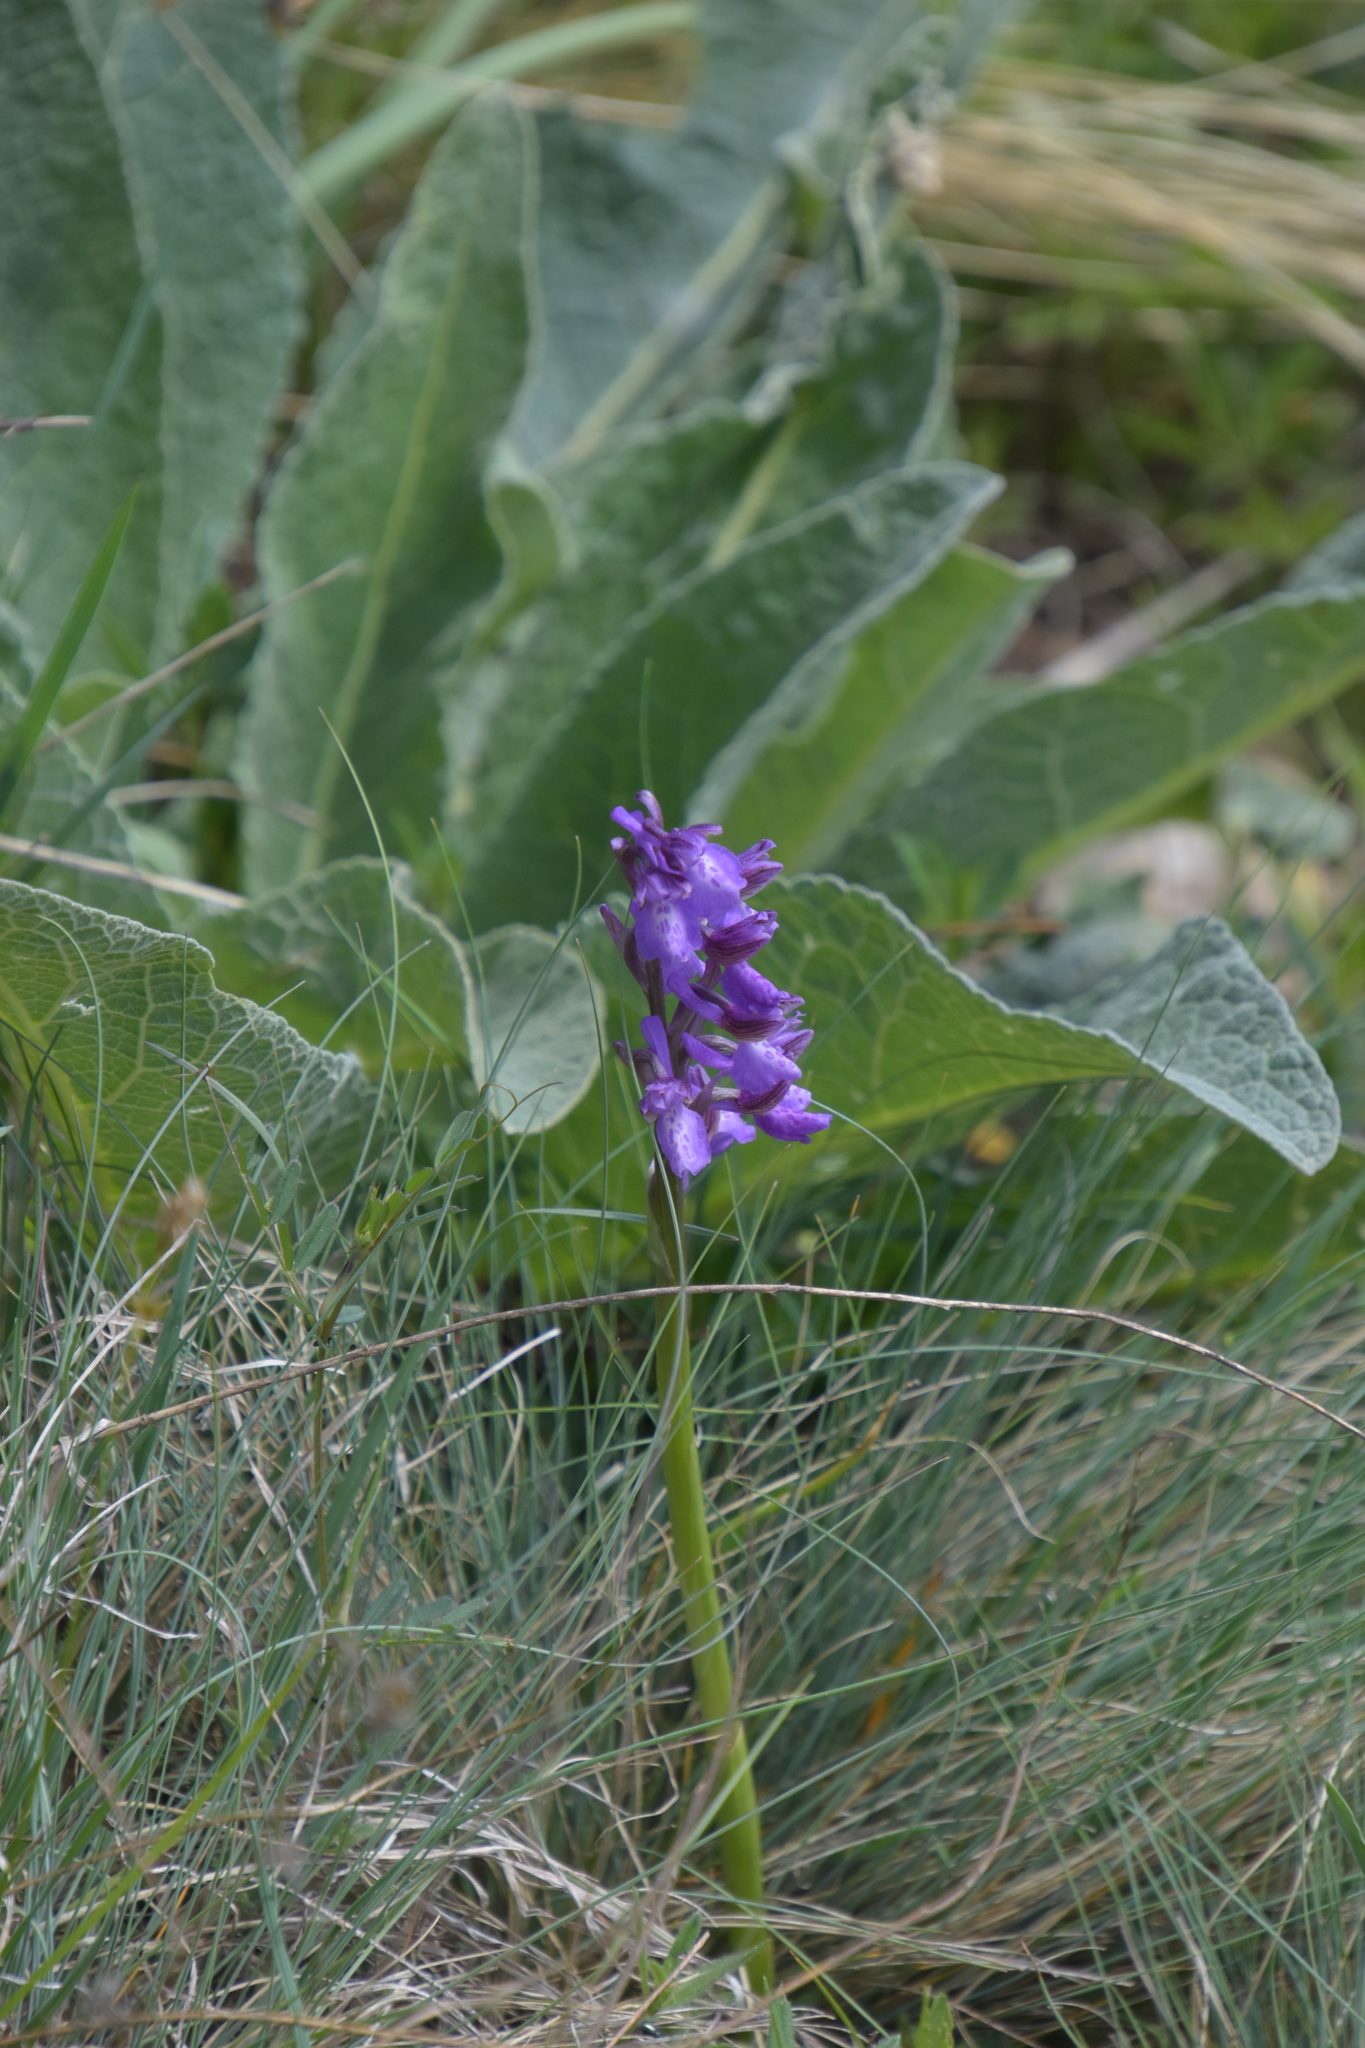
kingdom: Plantae
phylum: Tracheophyta
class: Liliopsida
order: Asparagales
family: Orchidaceae
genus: Anacamptis
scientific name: Anacamptis morio
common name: Green-winged orchid
